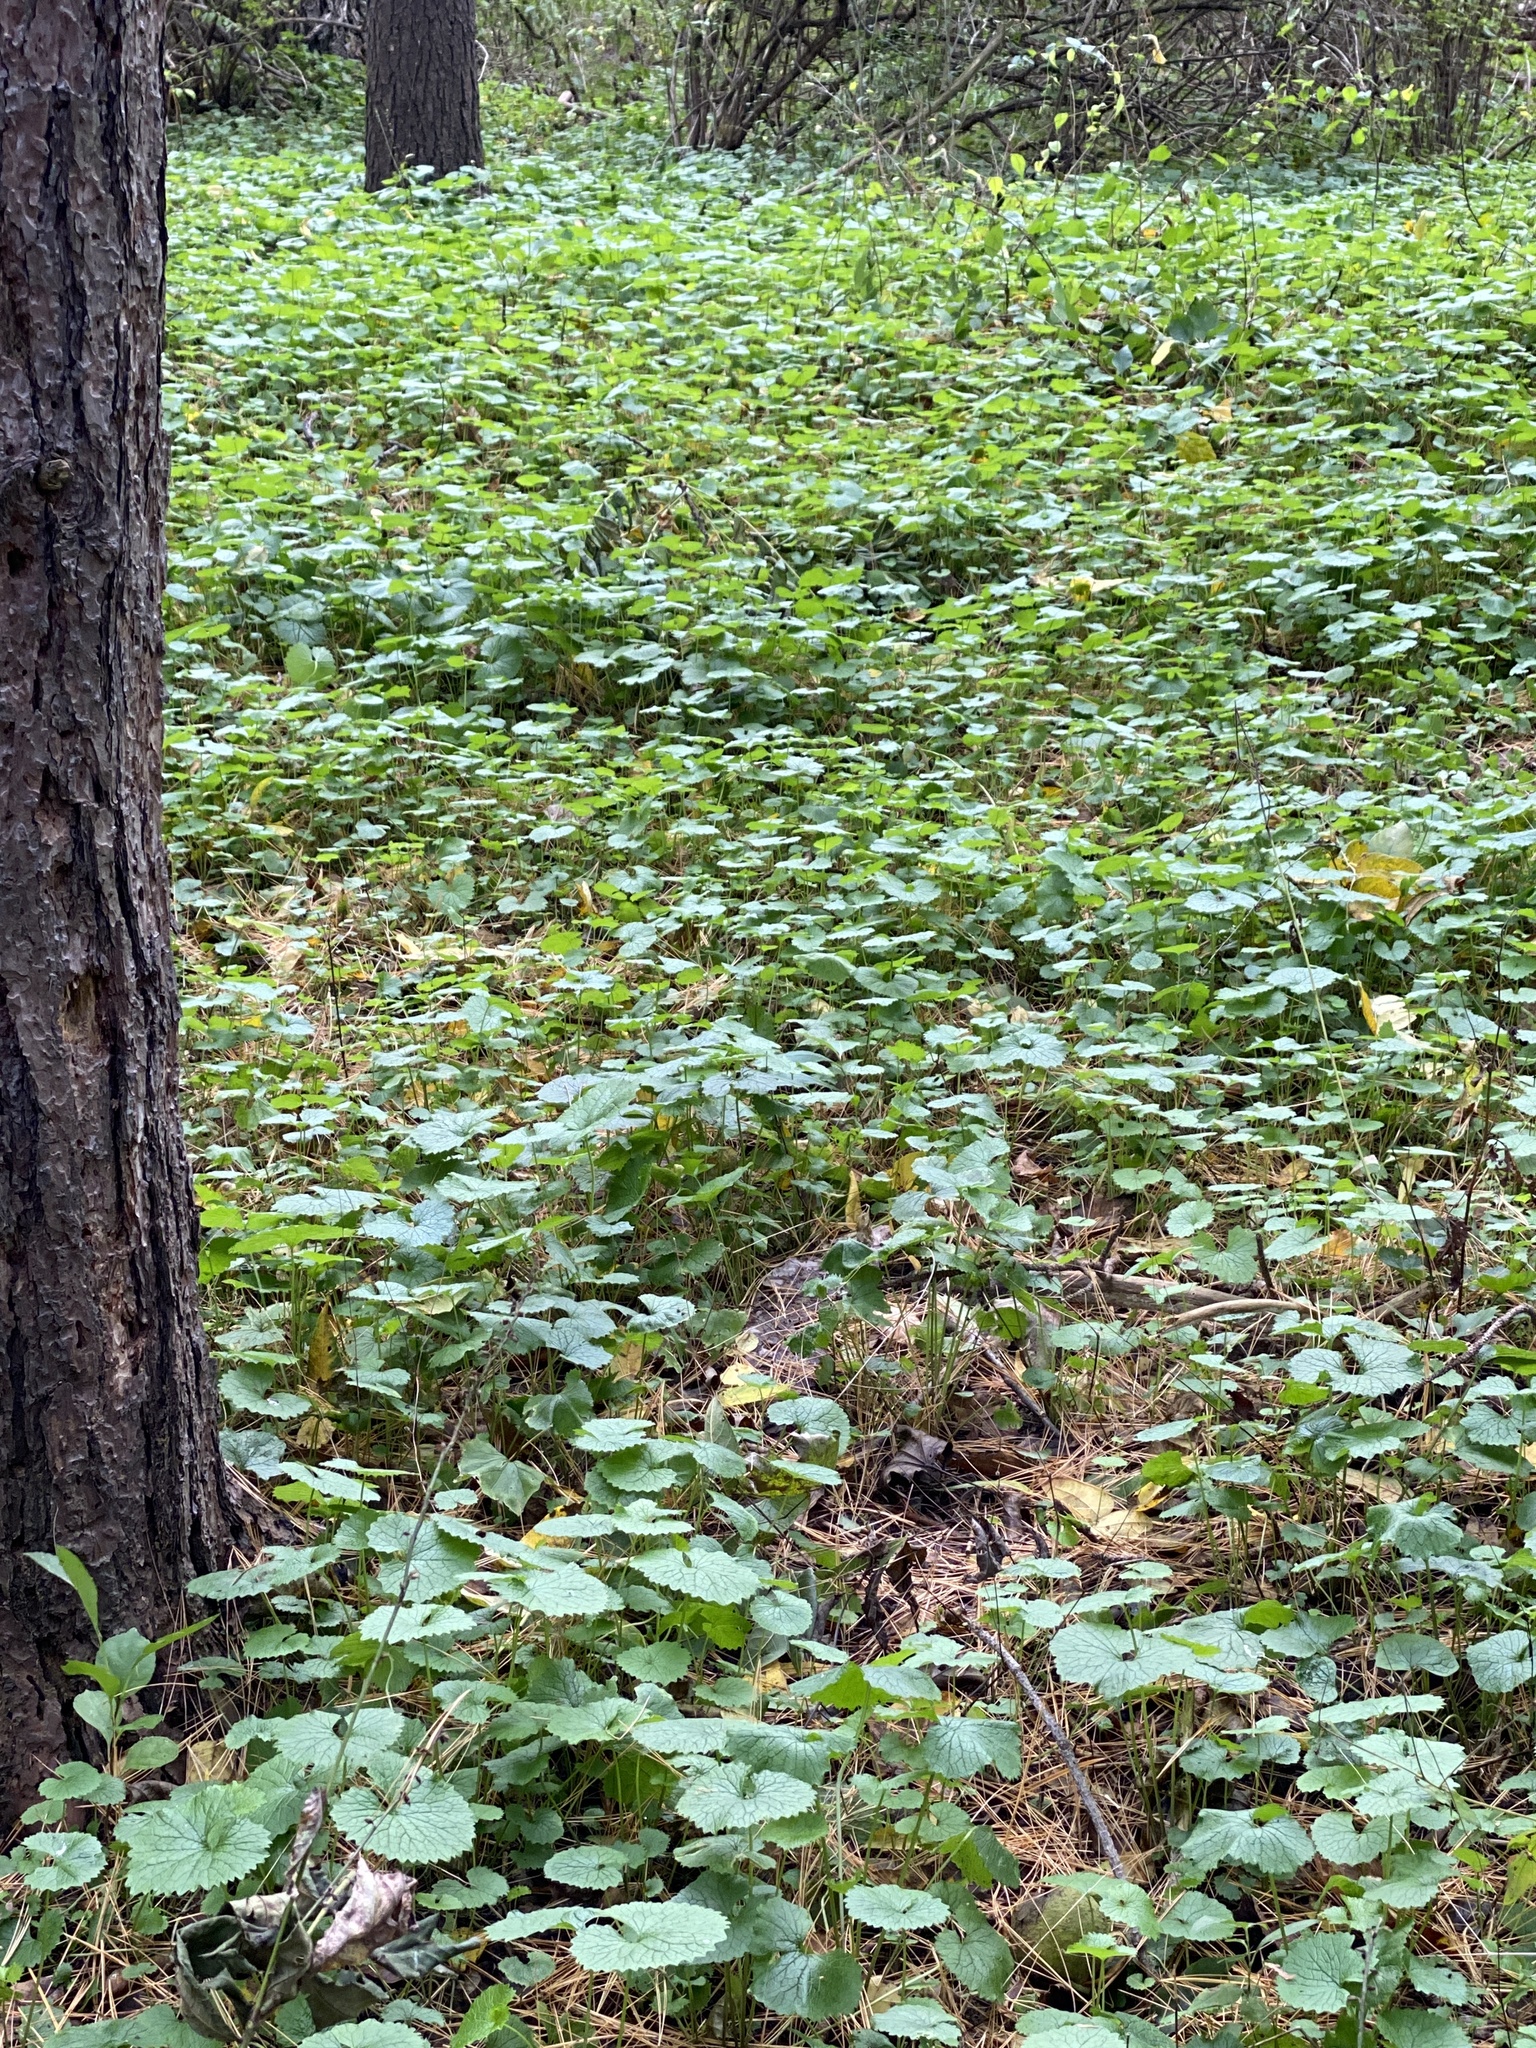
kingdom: Plantae
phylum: Tracheophyta
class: Magnoliopsida
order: Brassicales
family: Brassicaceae
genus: Alliaria
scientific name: Alliaria petiolata
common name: Garlic mustard
